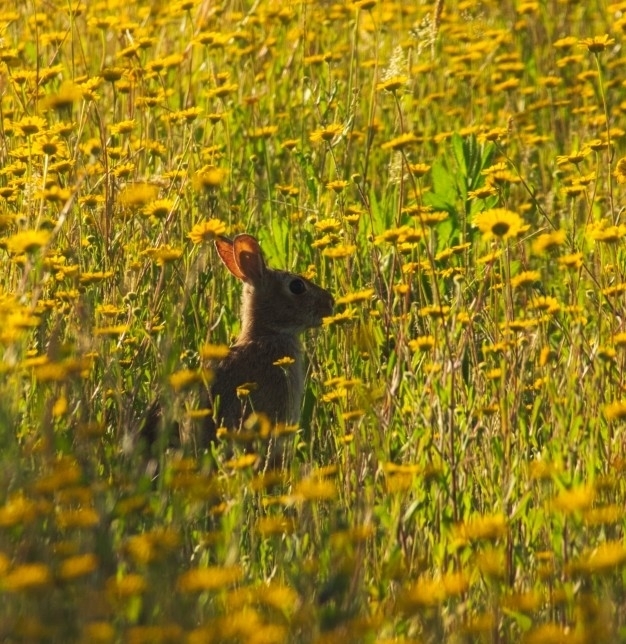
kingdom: Animalia
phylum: Chordata
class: Mammalia
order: Lagomorpha
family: Leporidae
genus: Sylvilagus
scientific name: Sylvilagus floridanus
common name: Eastern cottontail
